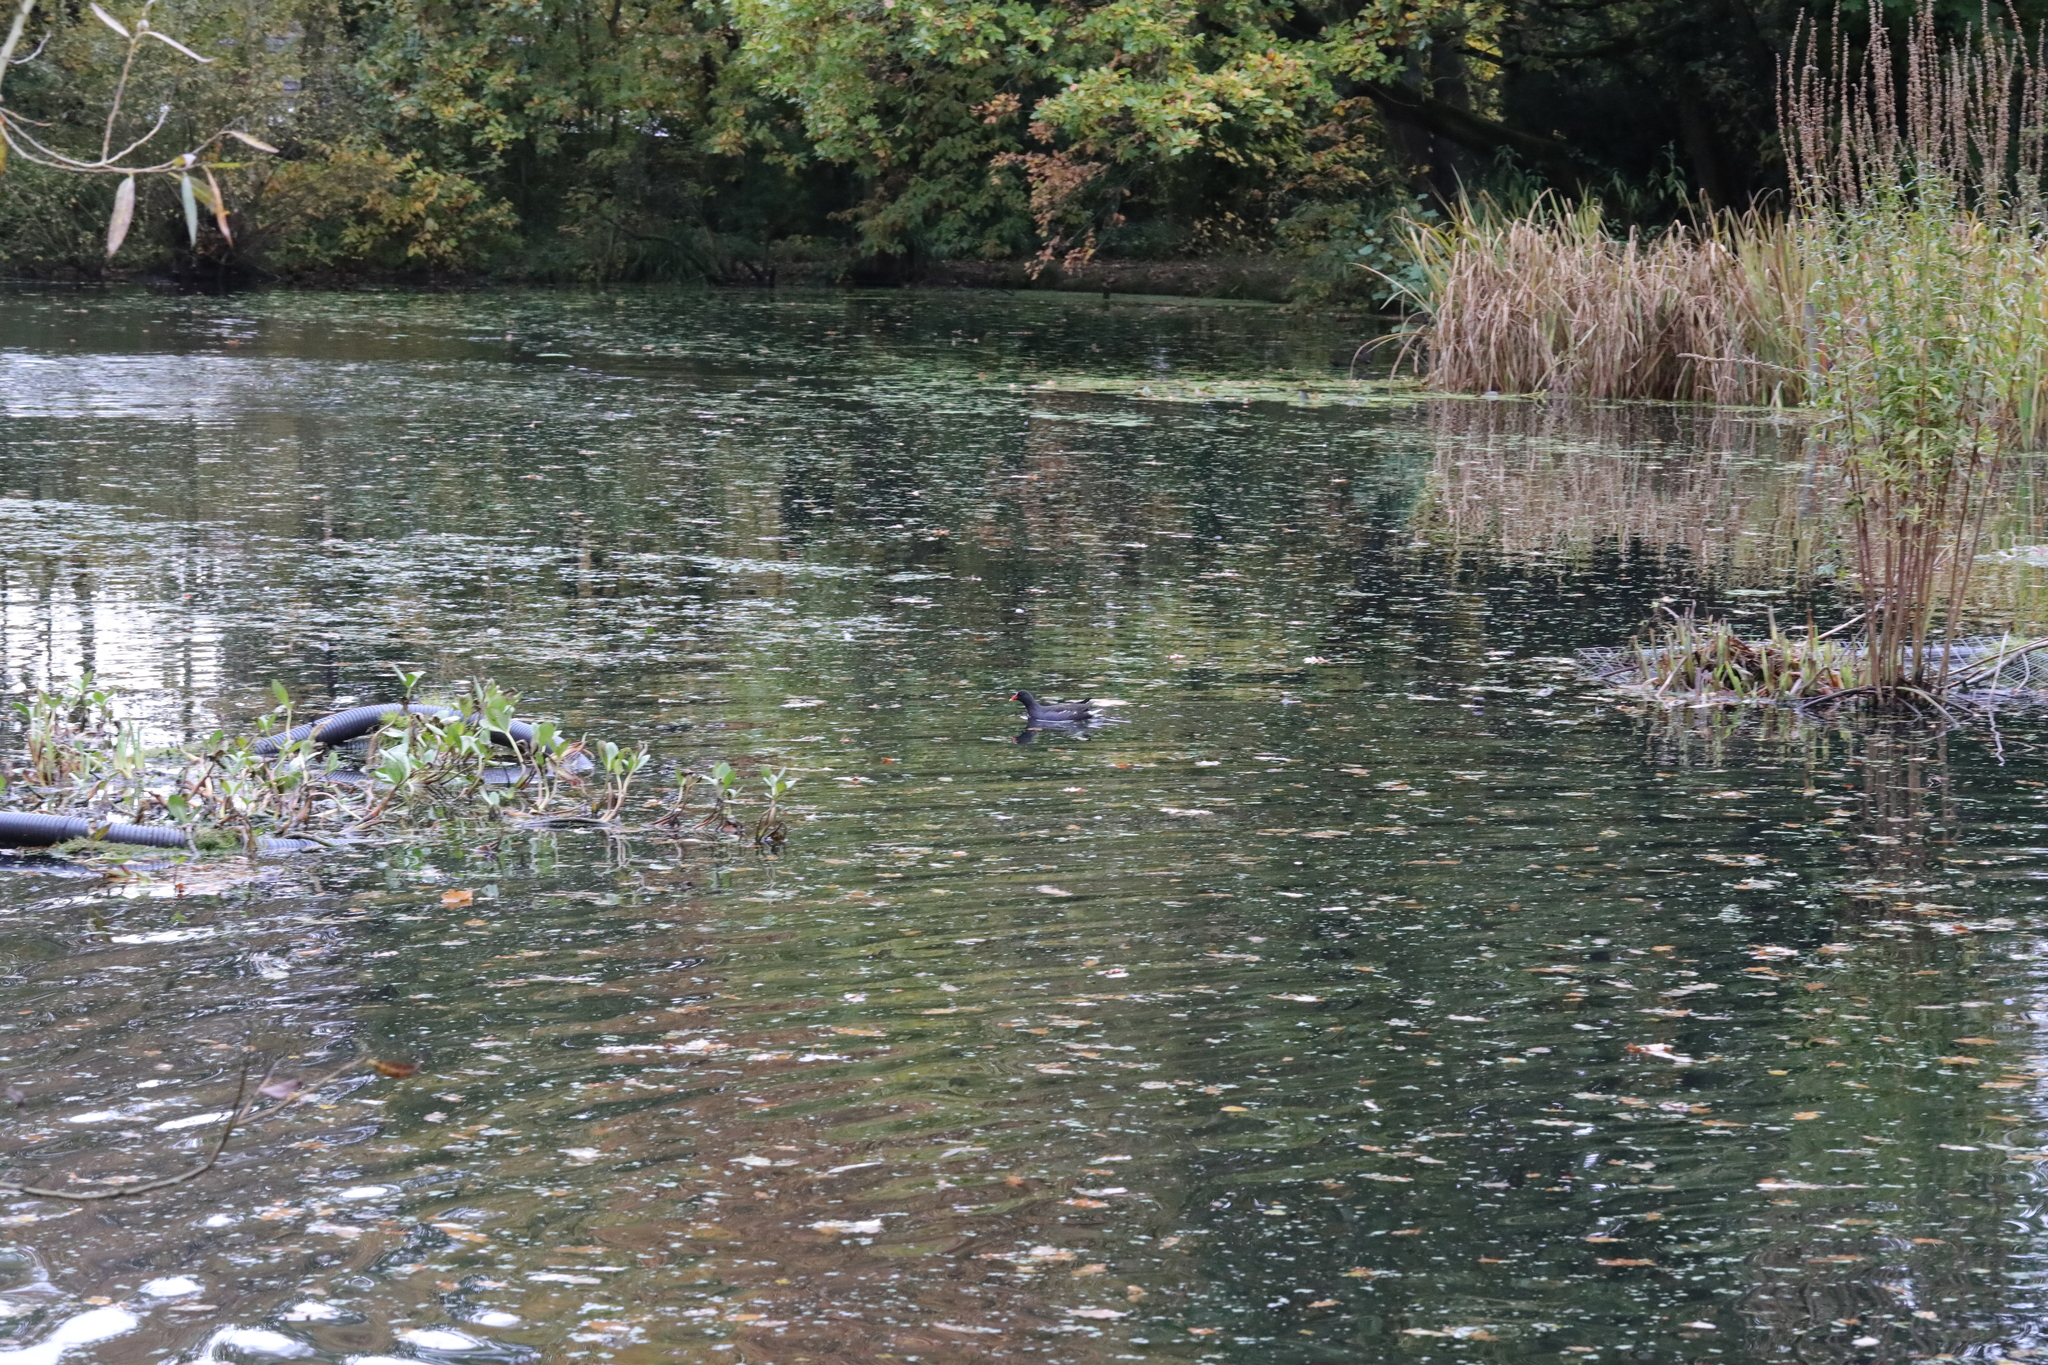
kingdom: Animalia
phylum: Chordata
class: Aves
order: Gruiformes
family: Rallidae
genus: Gallinula
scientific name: Gallinula chloropus
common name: Common moorhen
